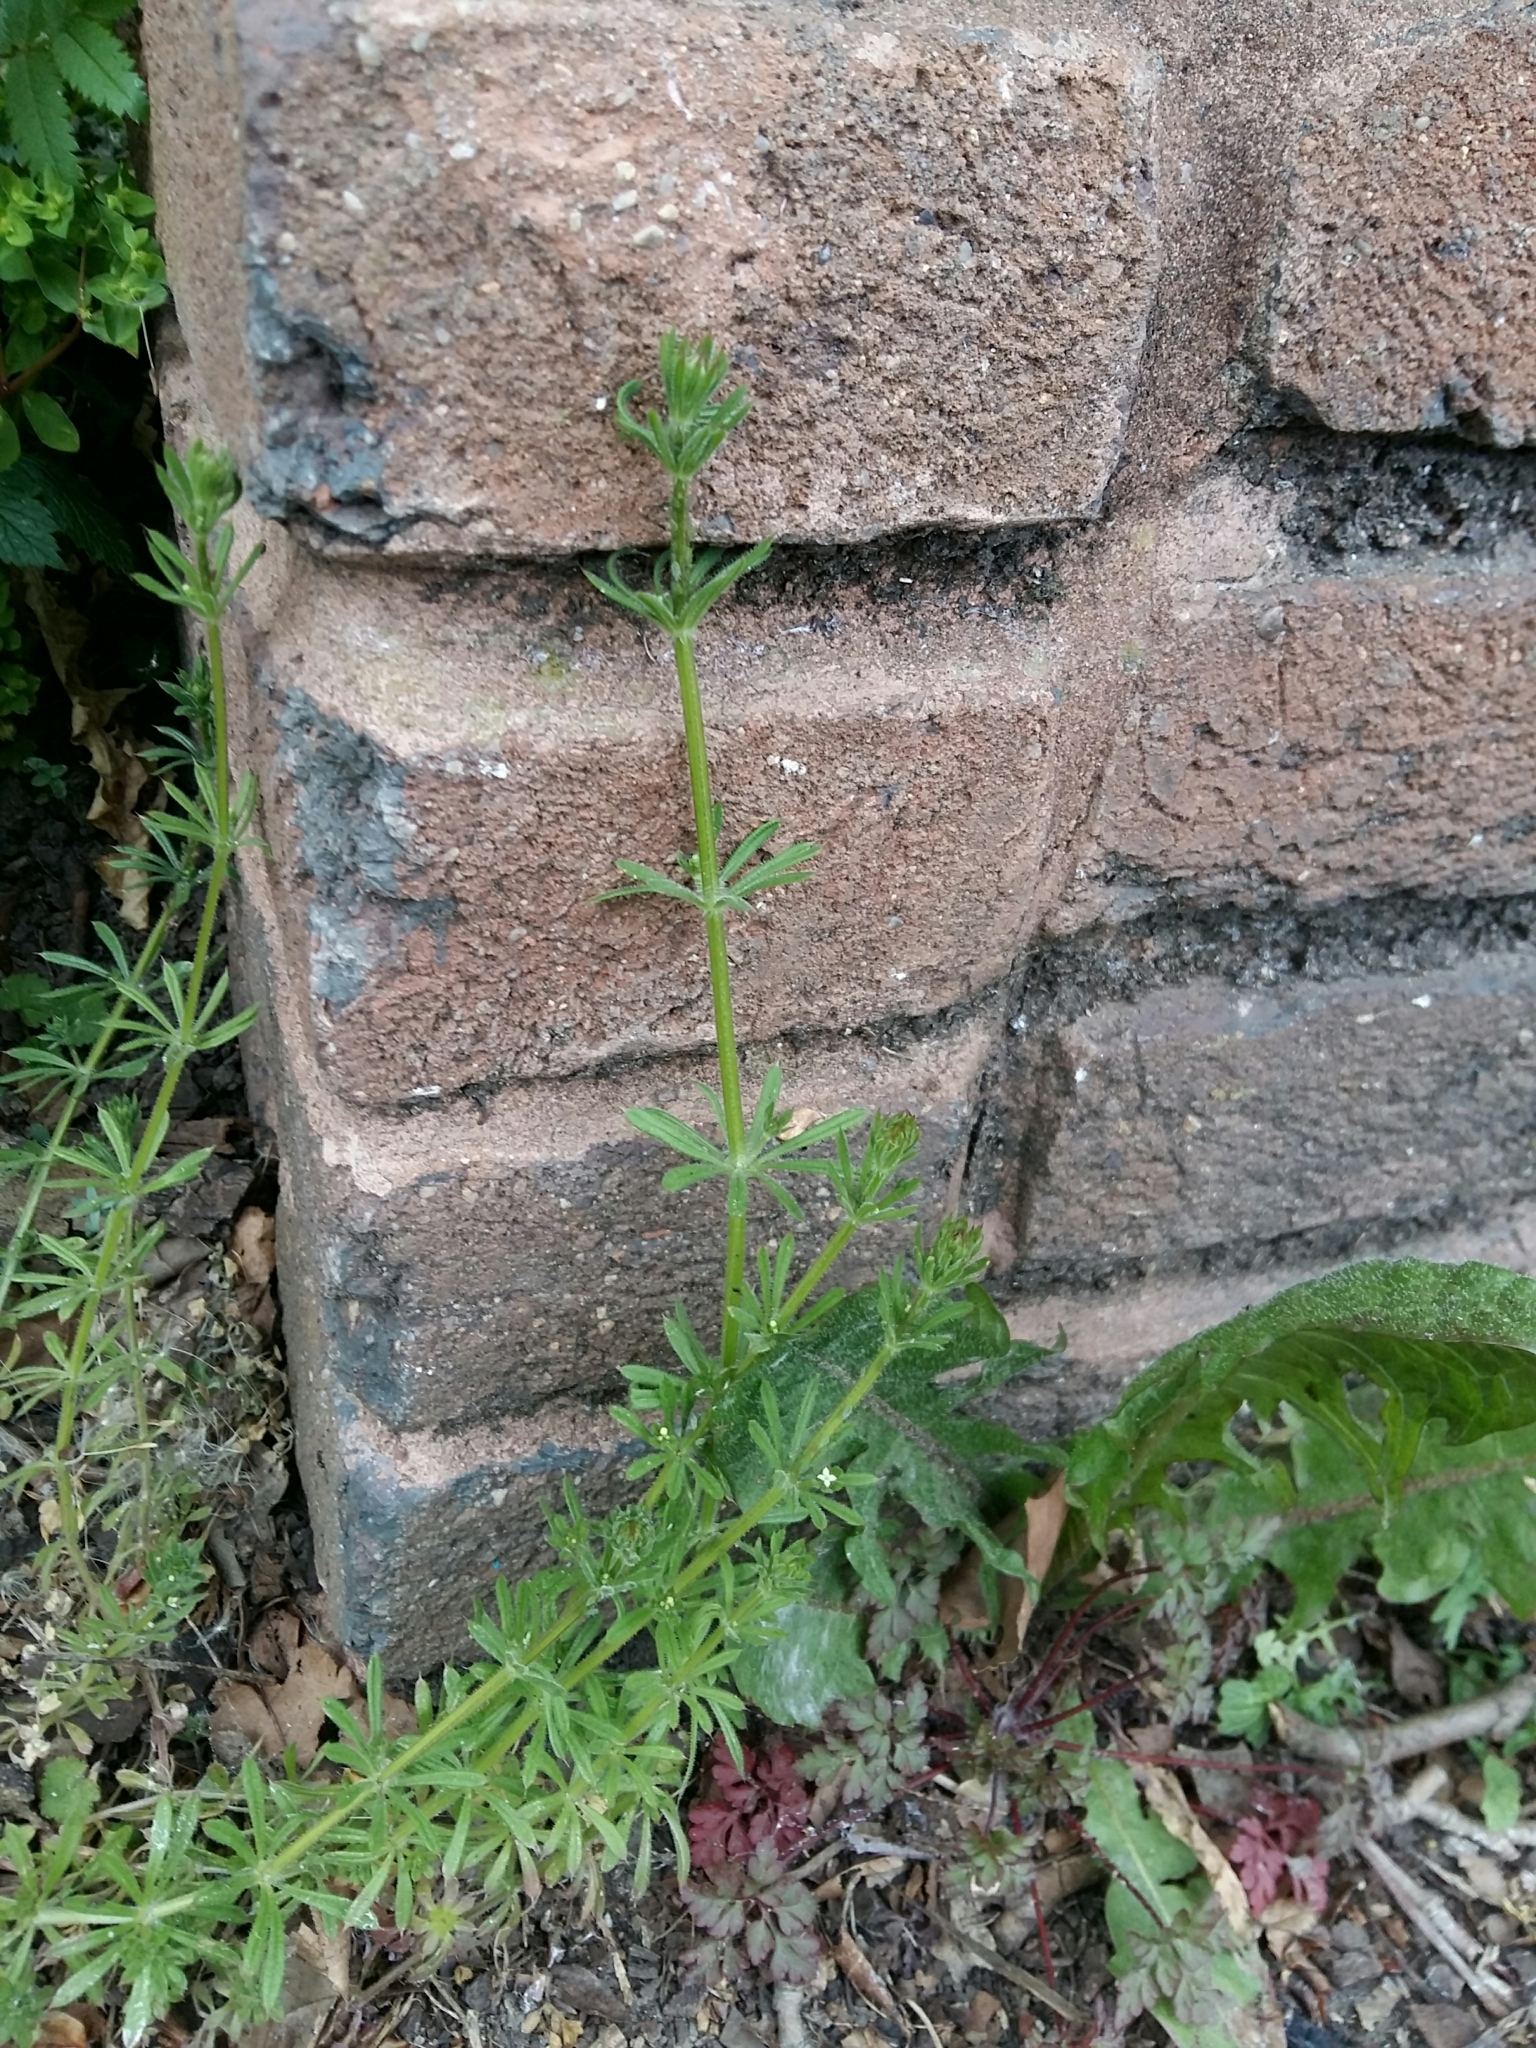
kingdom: Plantae
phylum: Tracheophyta
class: Magnoliopsida
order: Gentianales
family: Rubiaceae
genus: Galium
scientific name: Galium aparine
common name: Cleavers
